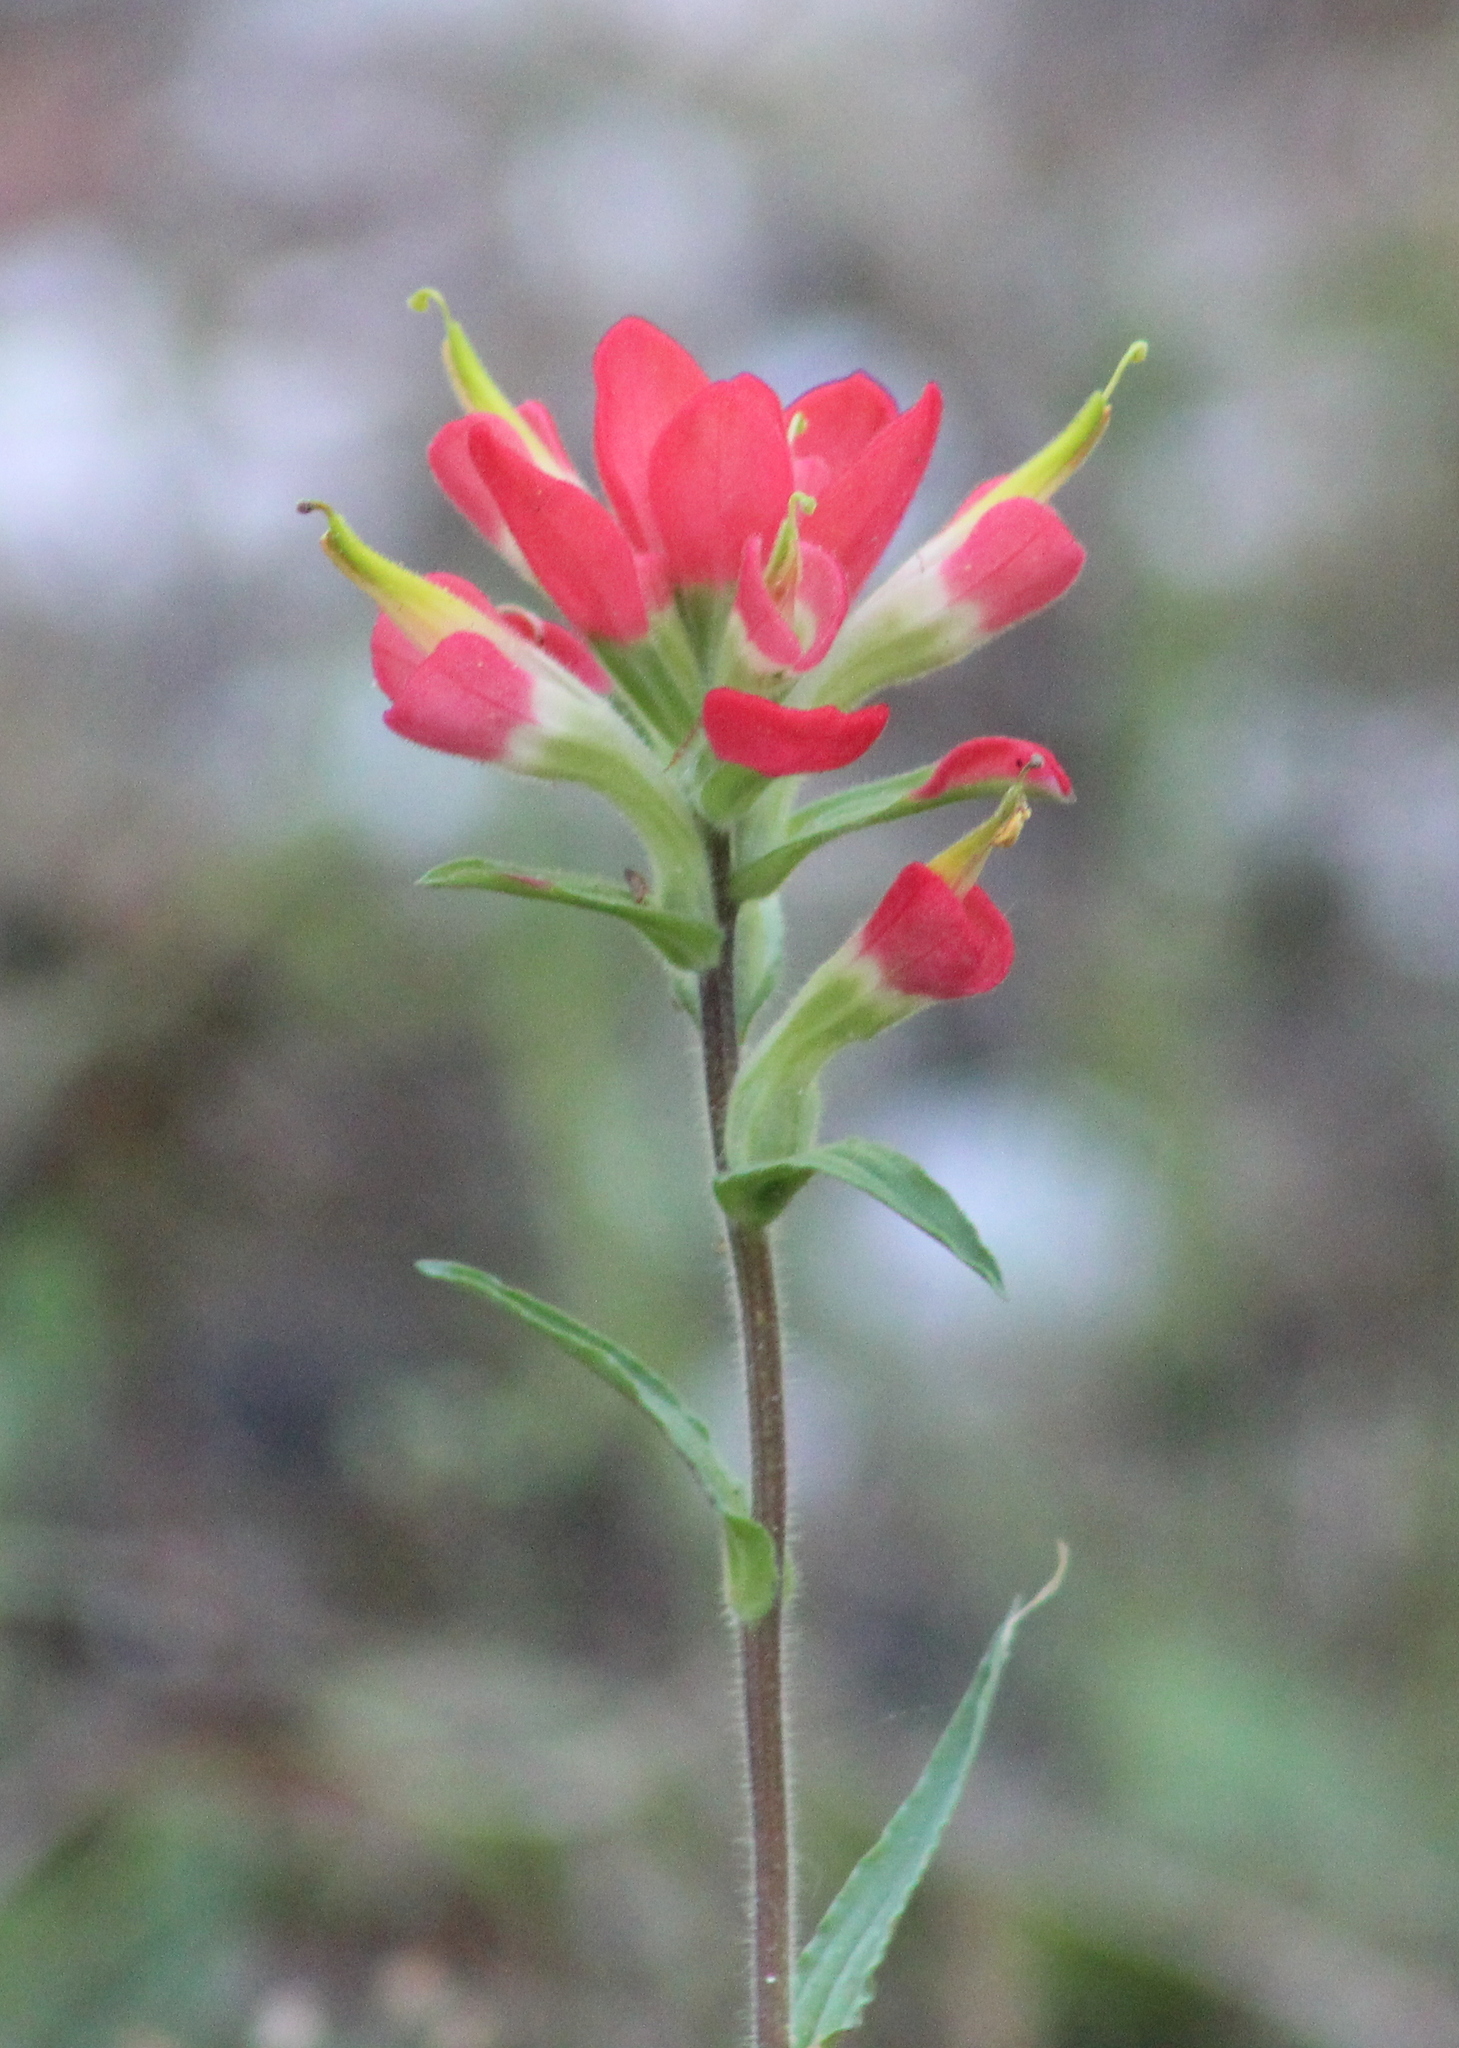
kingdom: Plantae
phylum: Tracheophyta
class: Magnoliopsida
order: Lamiales
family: Orobanchaceae
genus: Castilleja
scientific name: Castilleja indivisa
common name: Texas paintbrush
